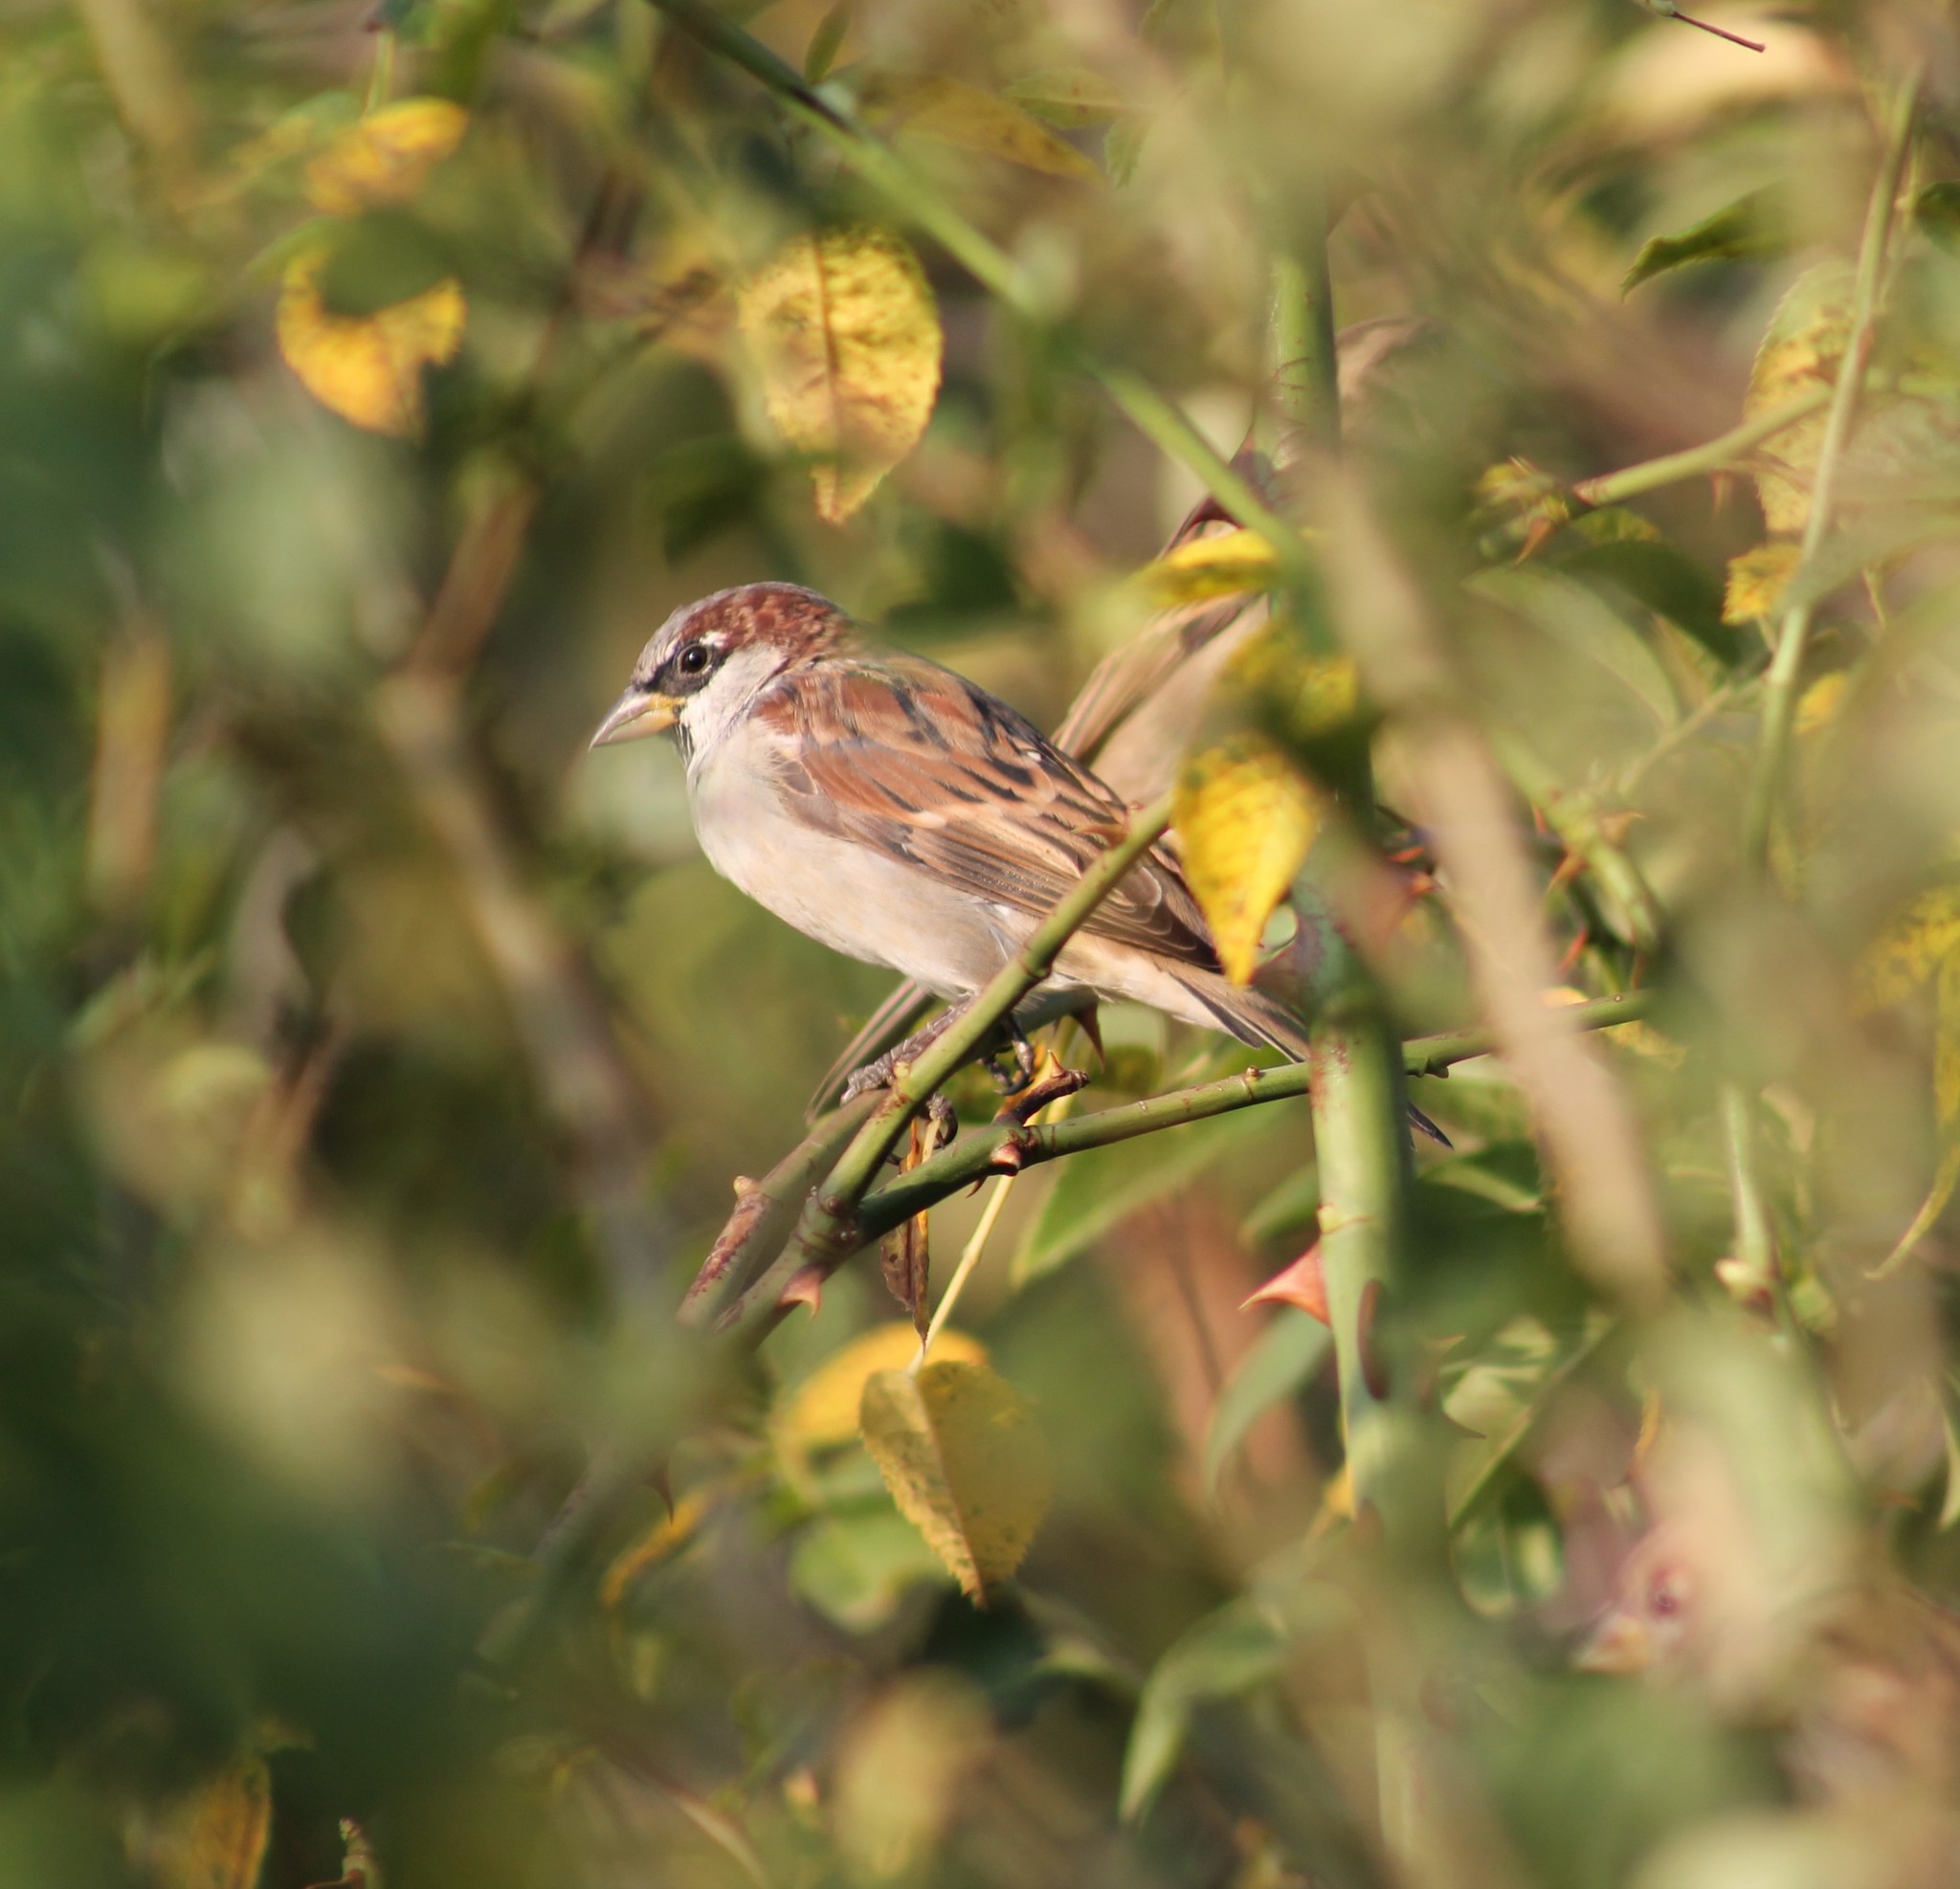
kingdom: Animalia
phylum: Chordata
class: Aves
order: Passeriformes
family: Passeridae
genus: Passer
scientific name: Passer domesticus
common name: House sparrow
